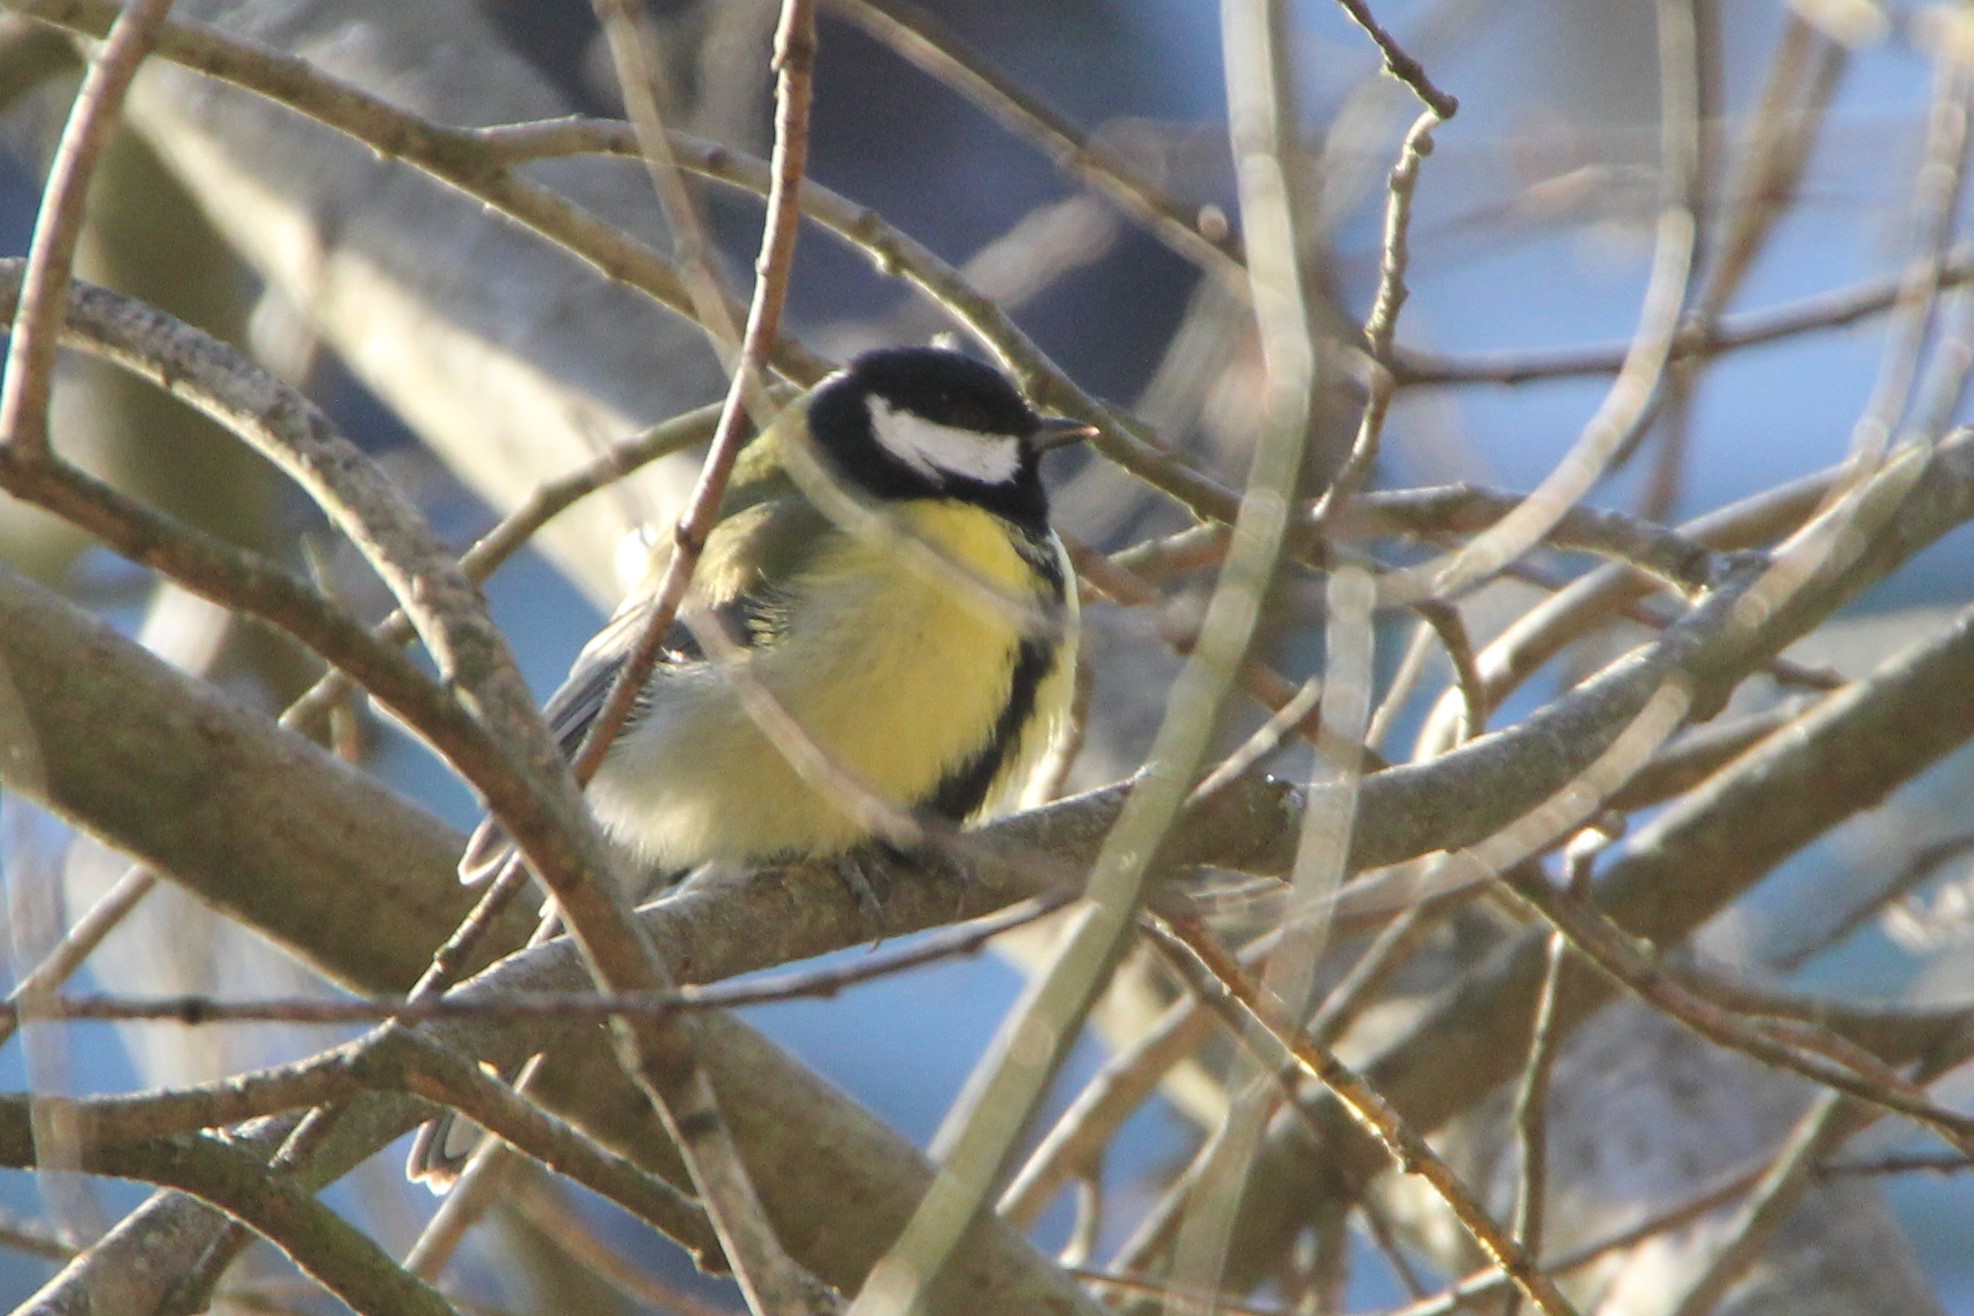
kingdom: Animalia
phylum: Chordata
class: Aves
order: Passeriformes
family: Paridae
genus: Parus
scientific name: Parus major
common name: Great tit
